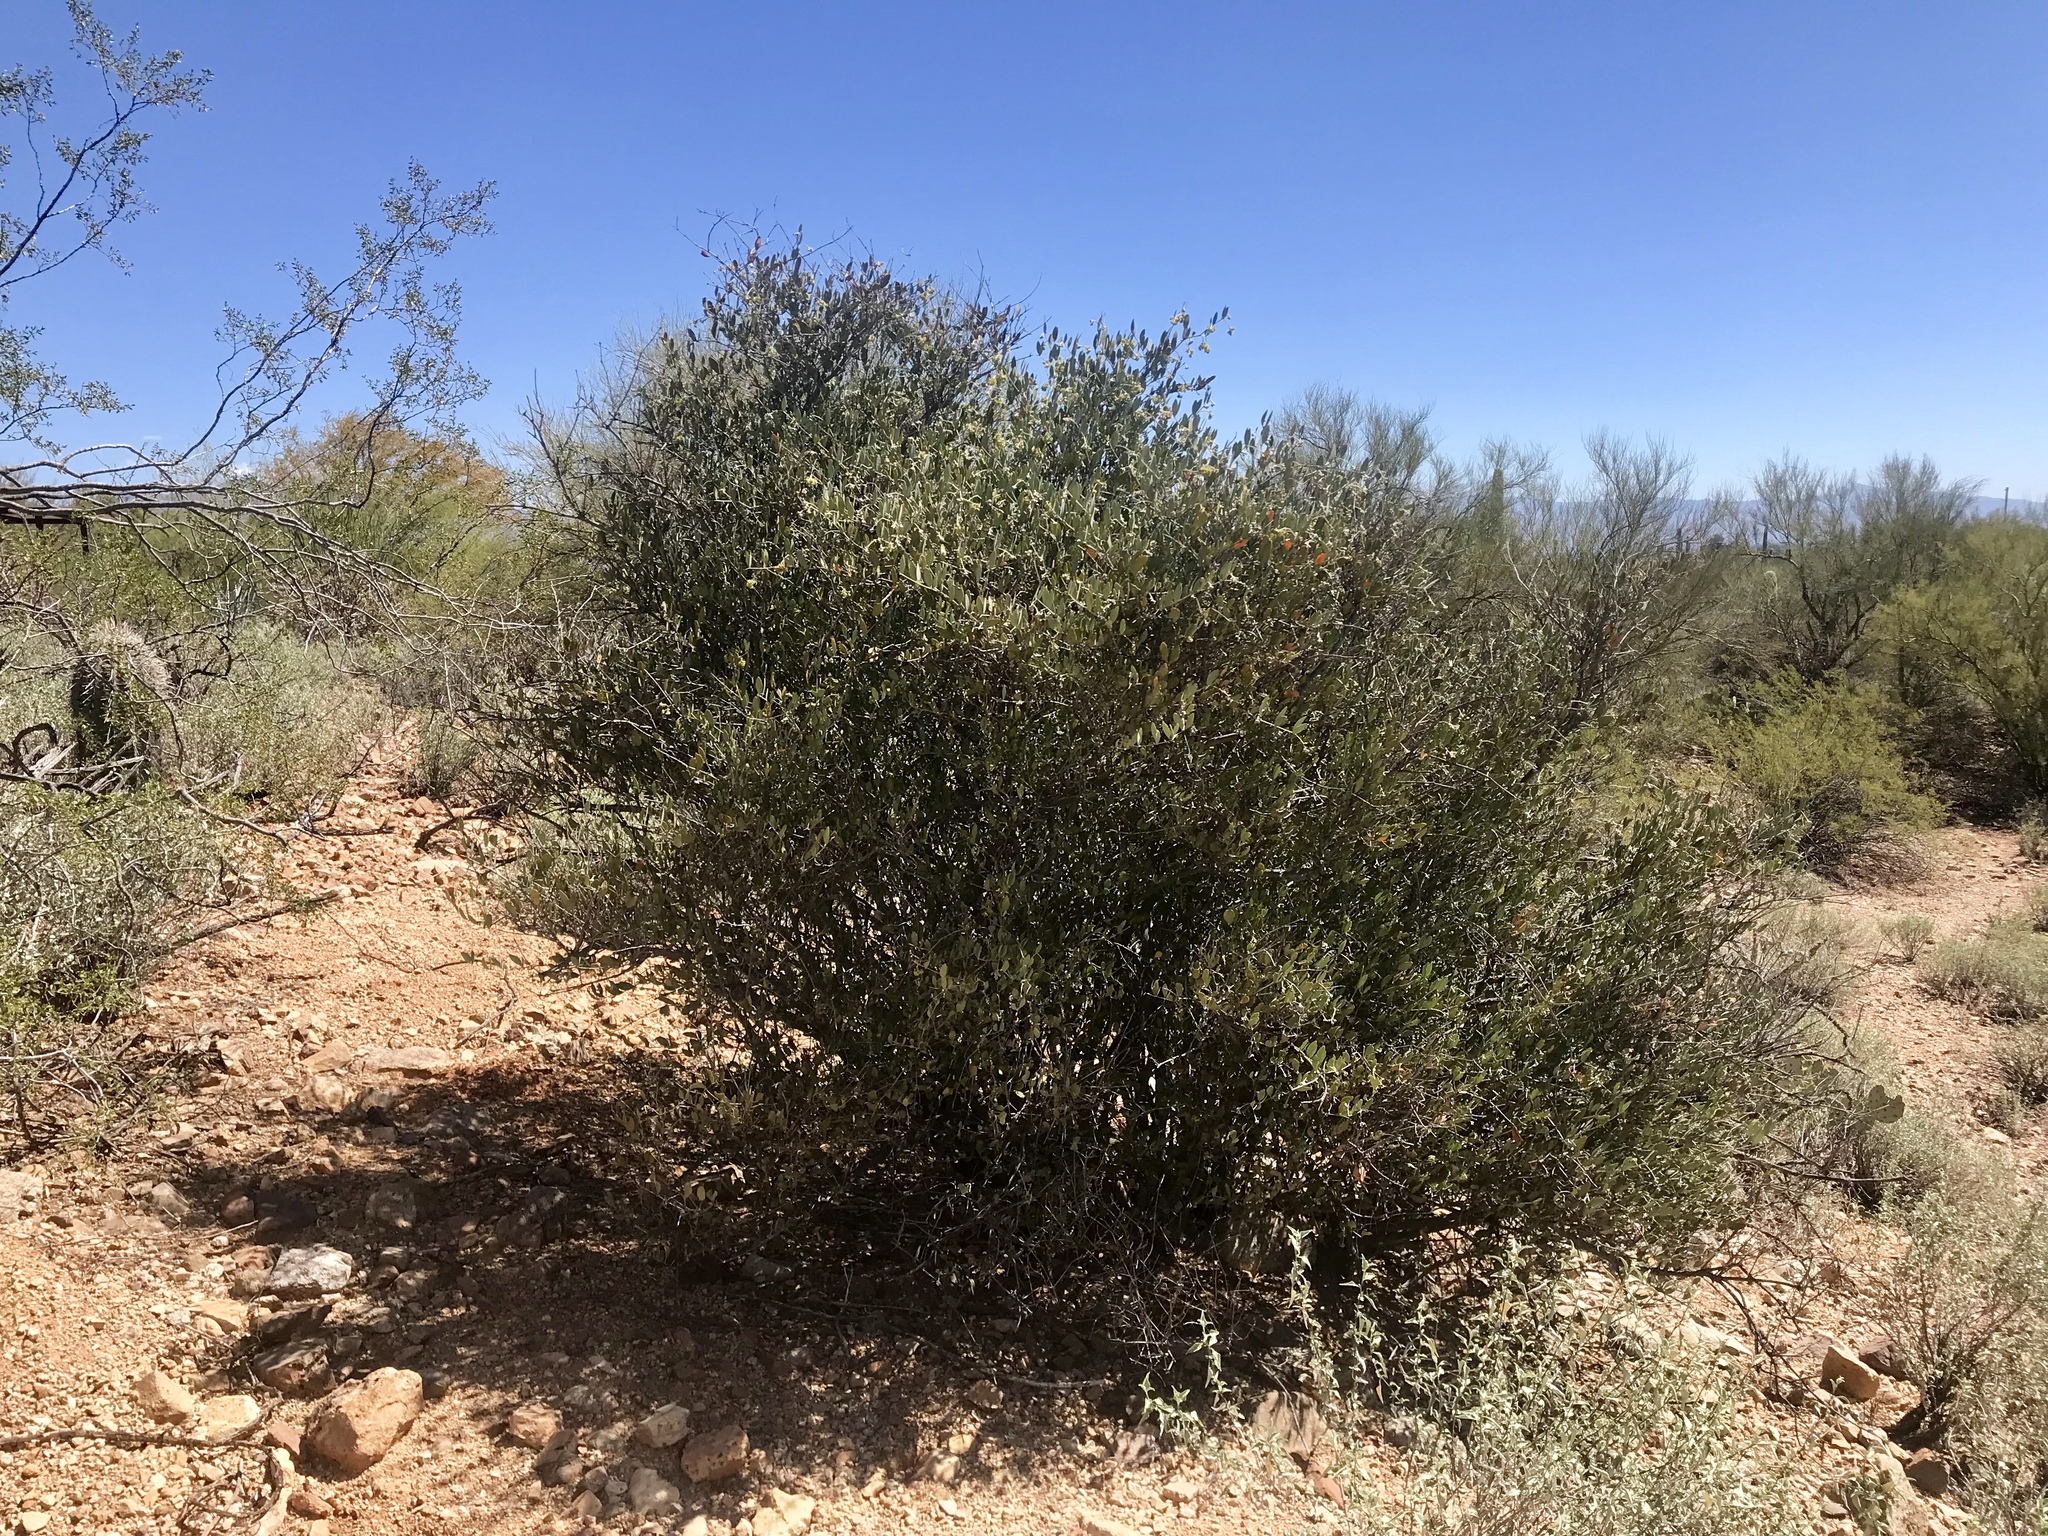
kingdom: Plantae
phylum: Tracheophyta
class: Magnoliopsida
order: Caryophyllales
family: Simmondsiaceae
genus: Simmondsia
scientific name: Simmondsia chinensis
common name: Jojoba
